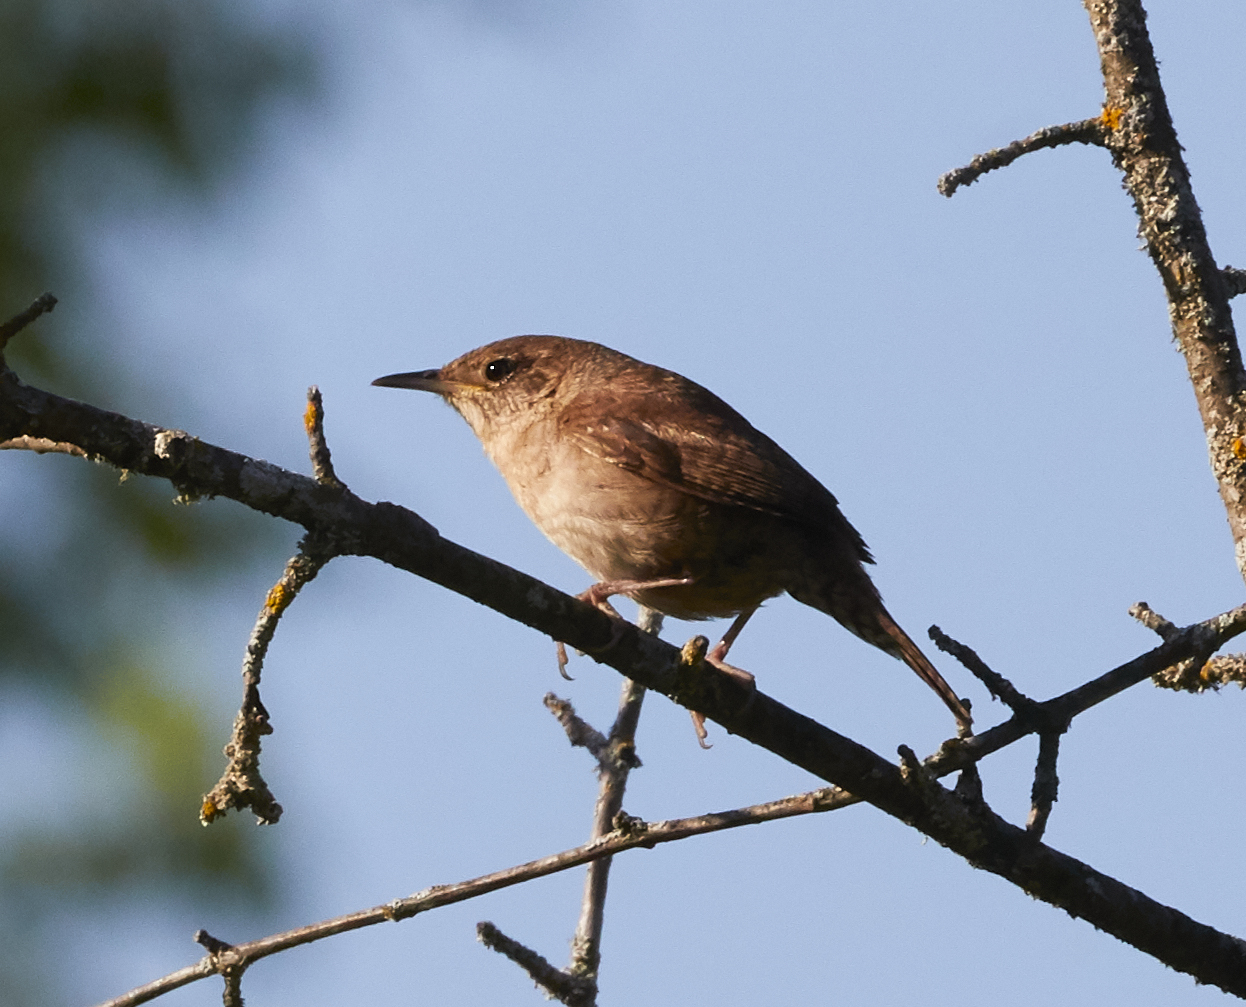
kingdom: Animalia
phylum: Chordata
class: Aves
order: Passeriformes
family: Troglodytidae
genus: Troglodytes
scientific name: Troglodytes aedon
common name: House wren
